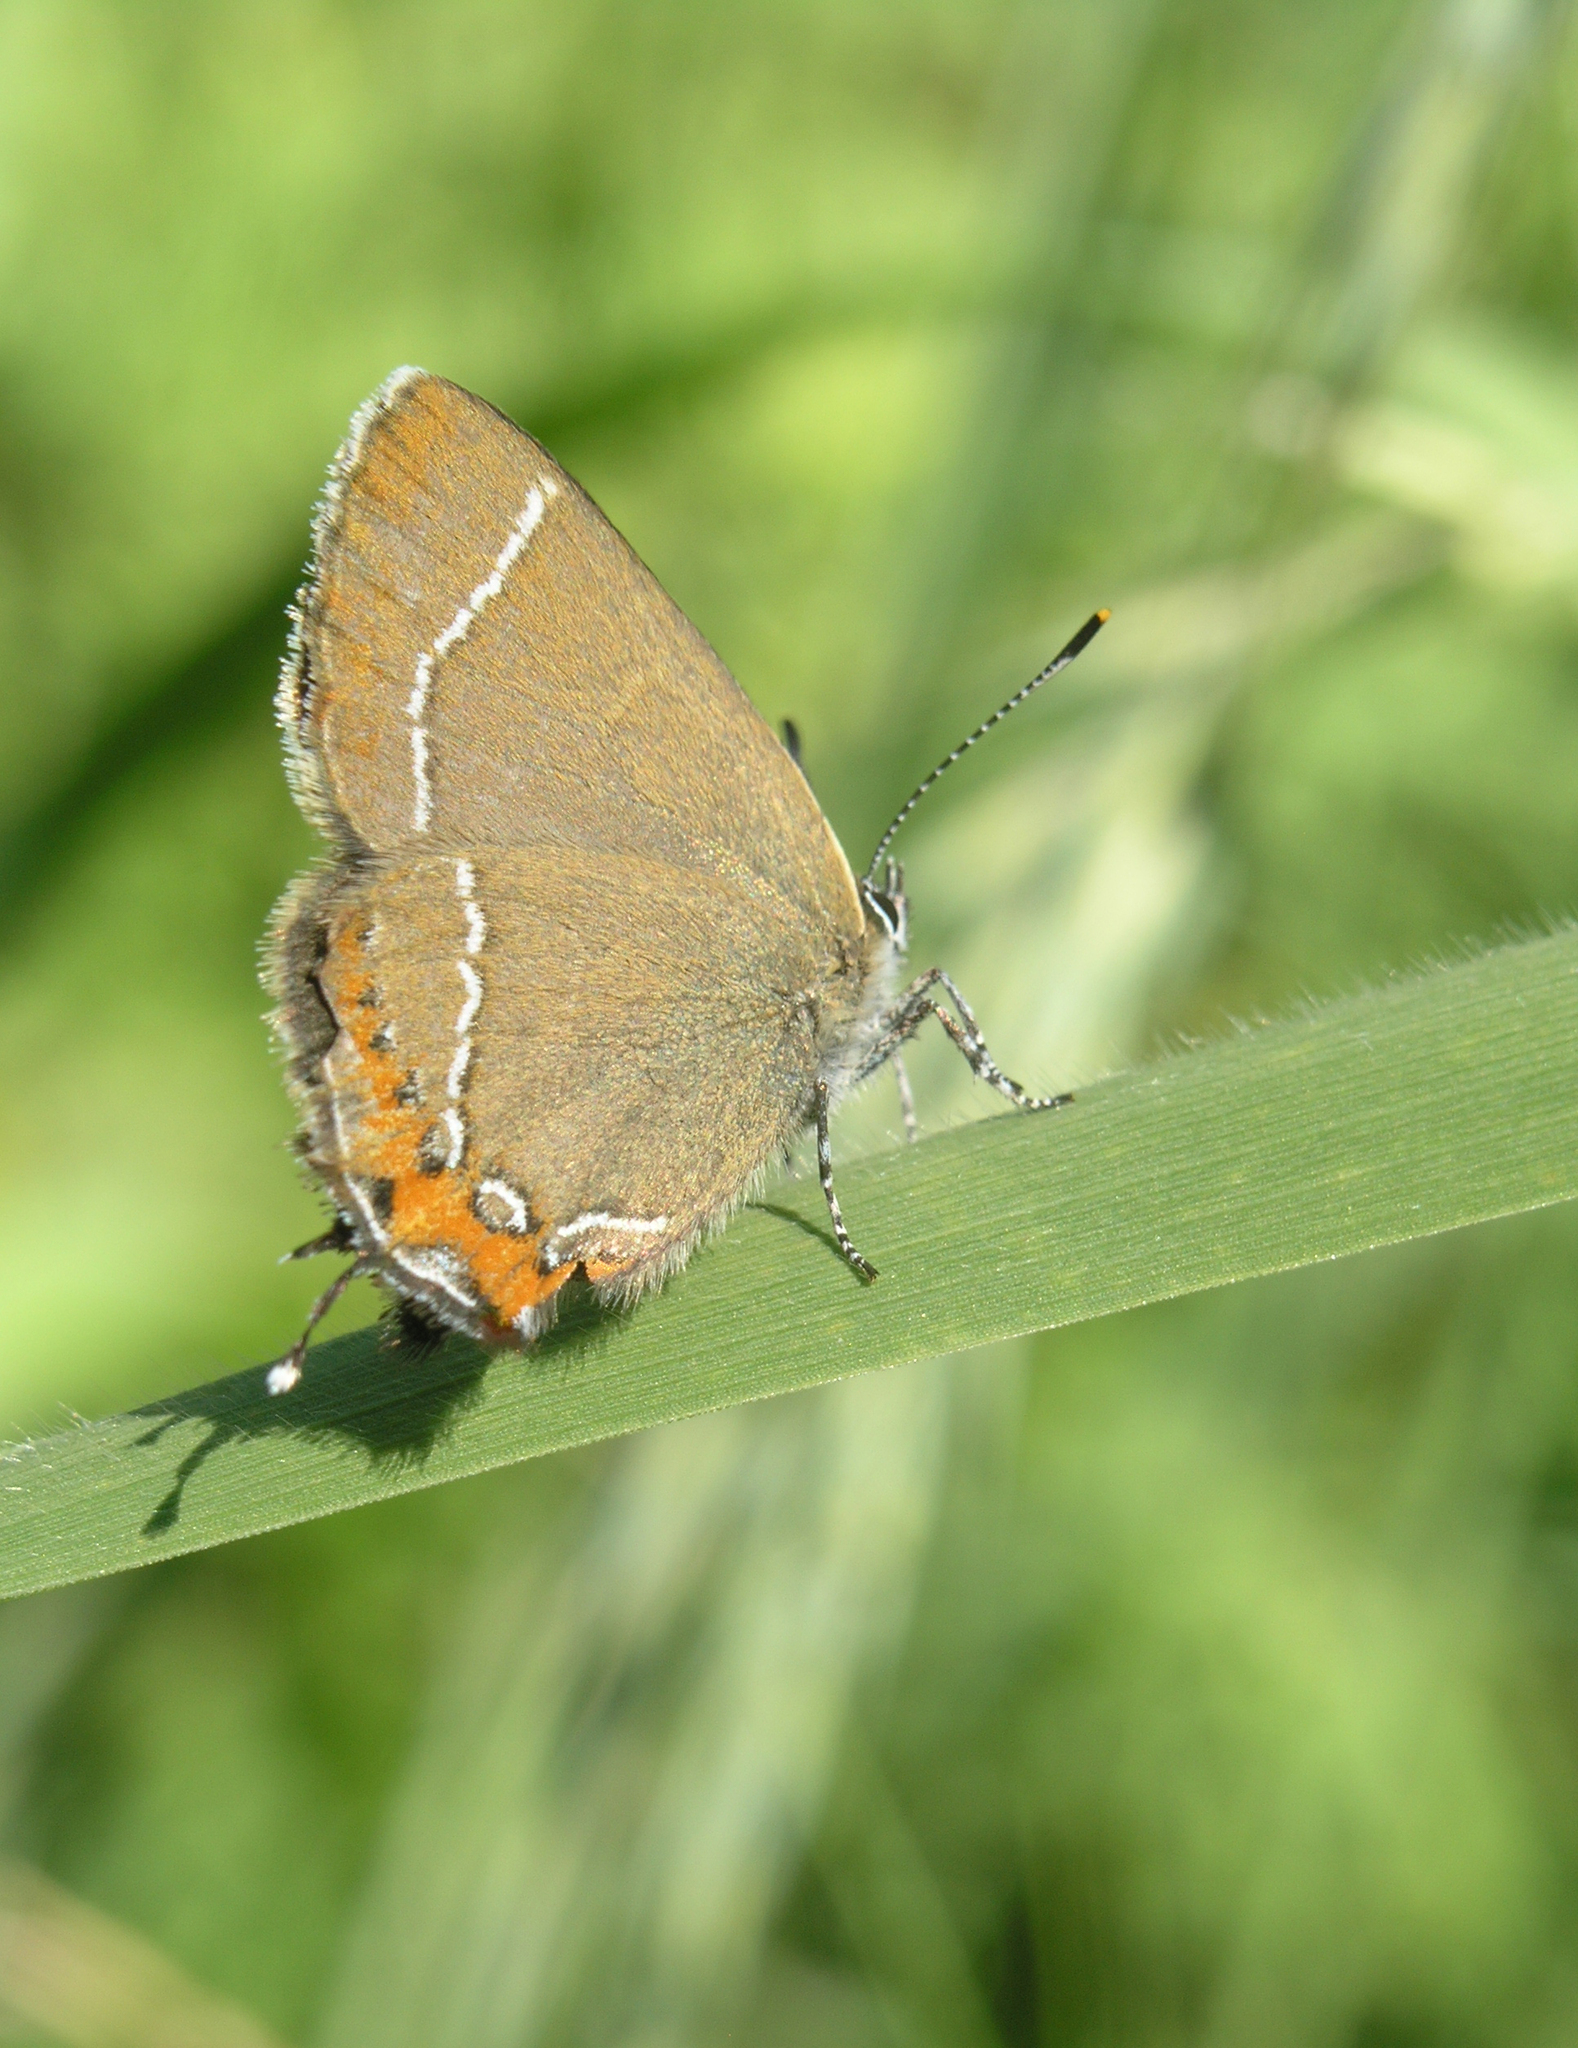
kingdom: Animalia
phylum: Arthropoda
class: Insecta
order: Lepidoptera
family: Lycaenidae
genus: Satyrium
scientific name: Satyrium prunoides
